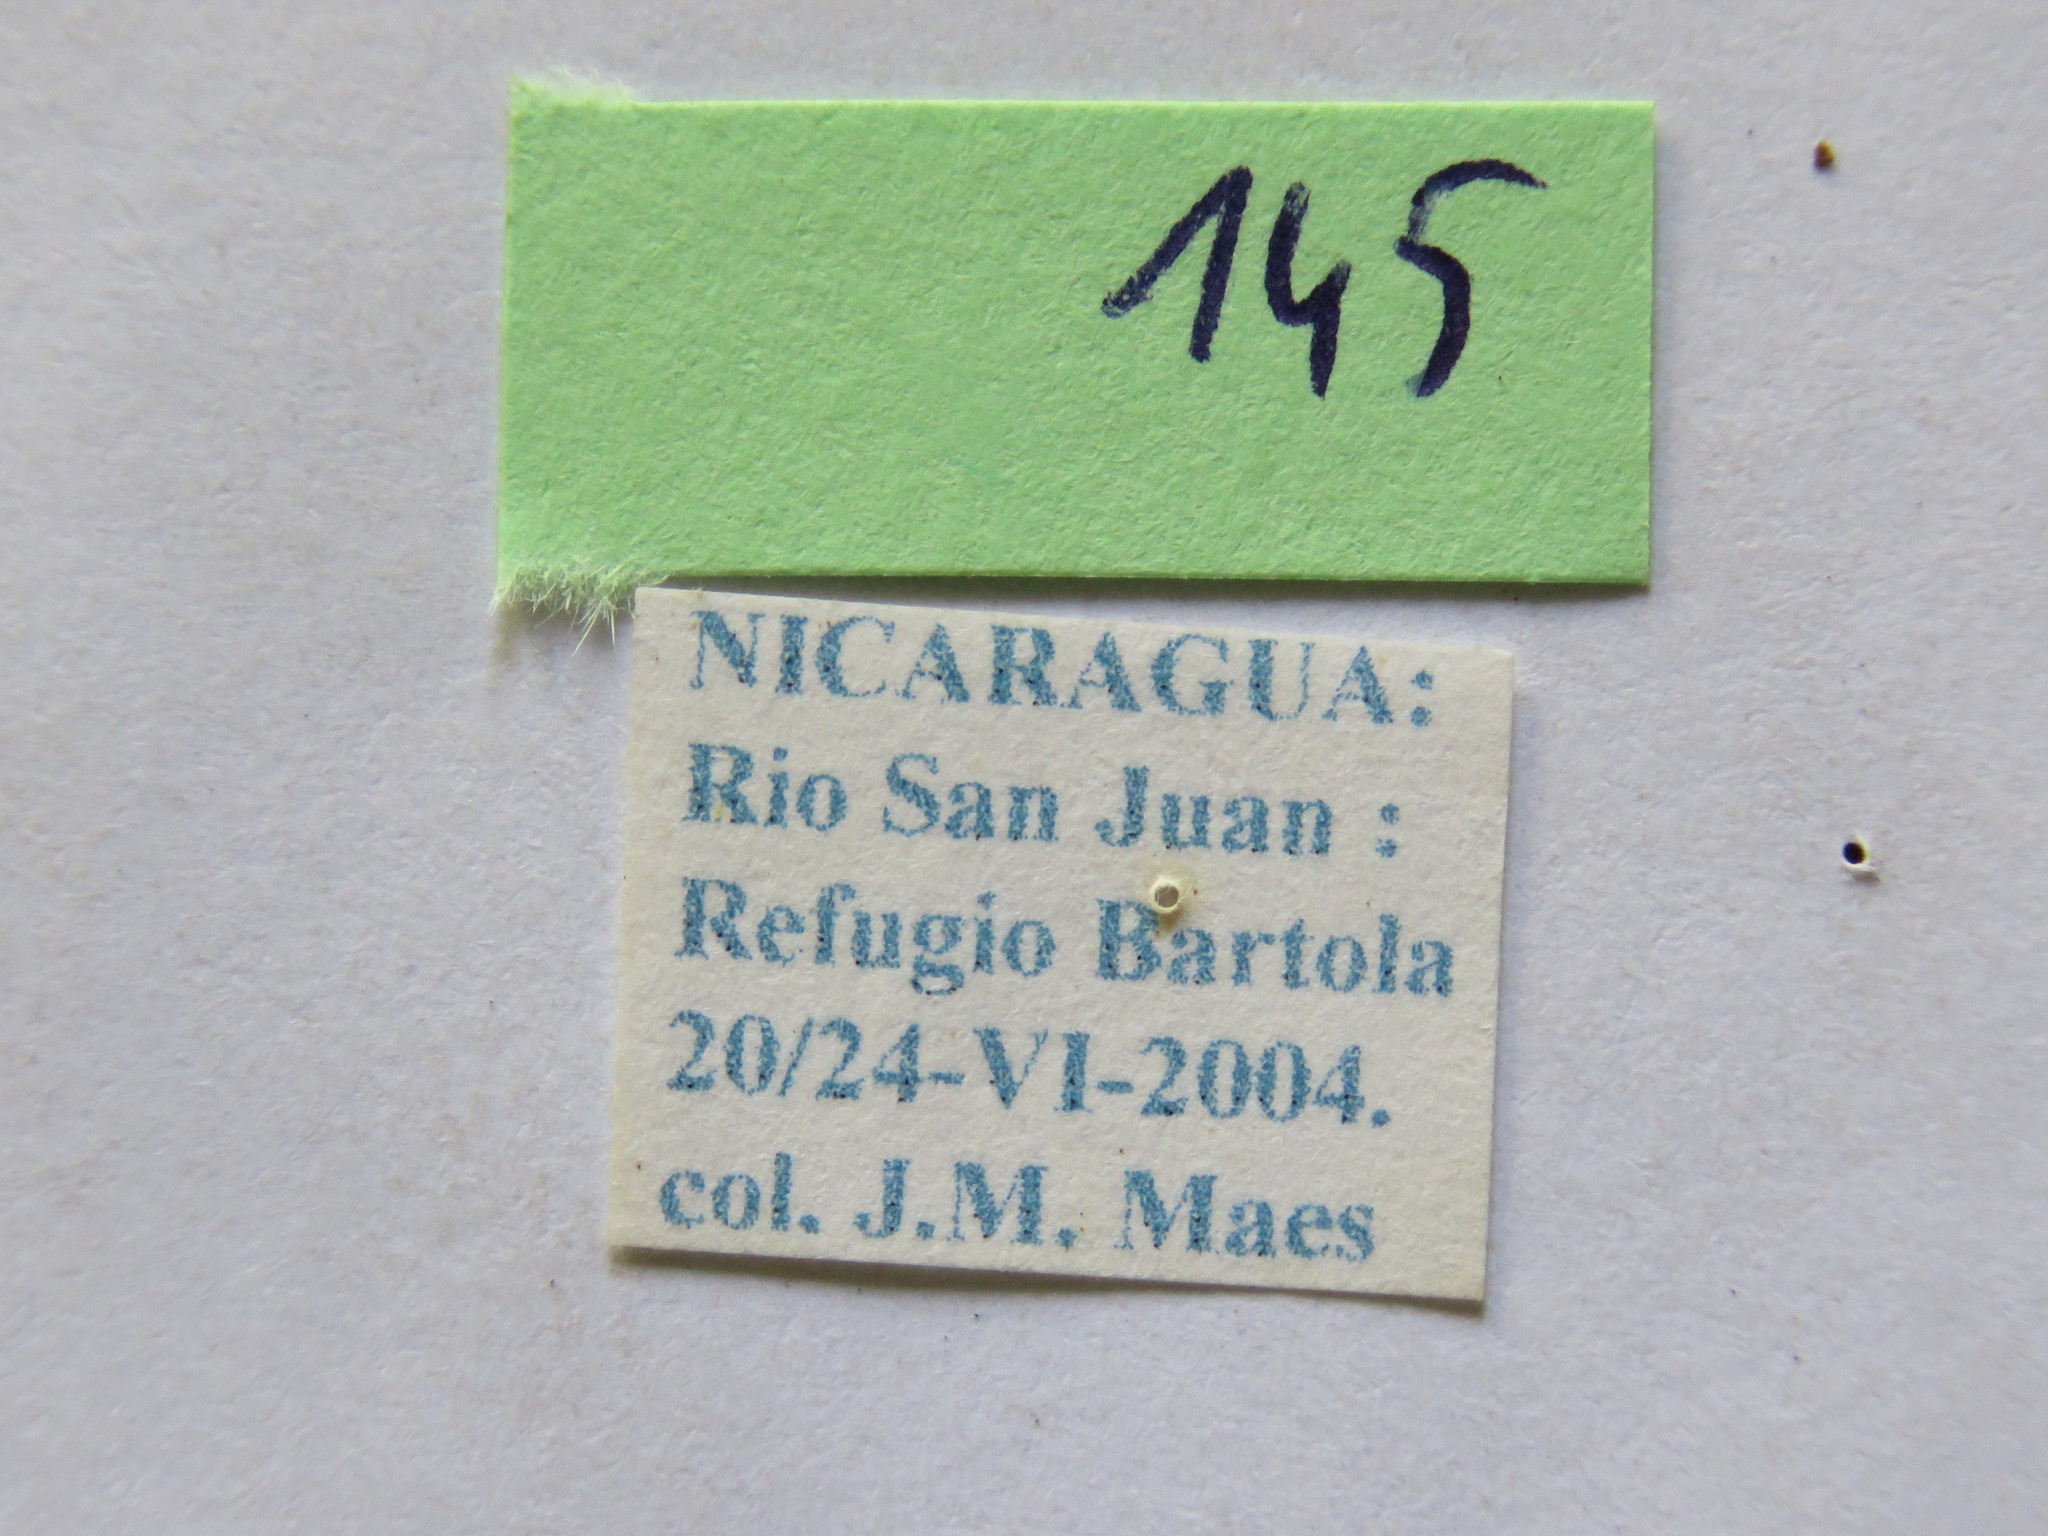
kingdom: Animalia
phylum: Arthropoda
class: Insecta
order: Hemiptera
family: Coreidae
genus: Melucha
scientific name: Melucha quinquelineata
